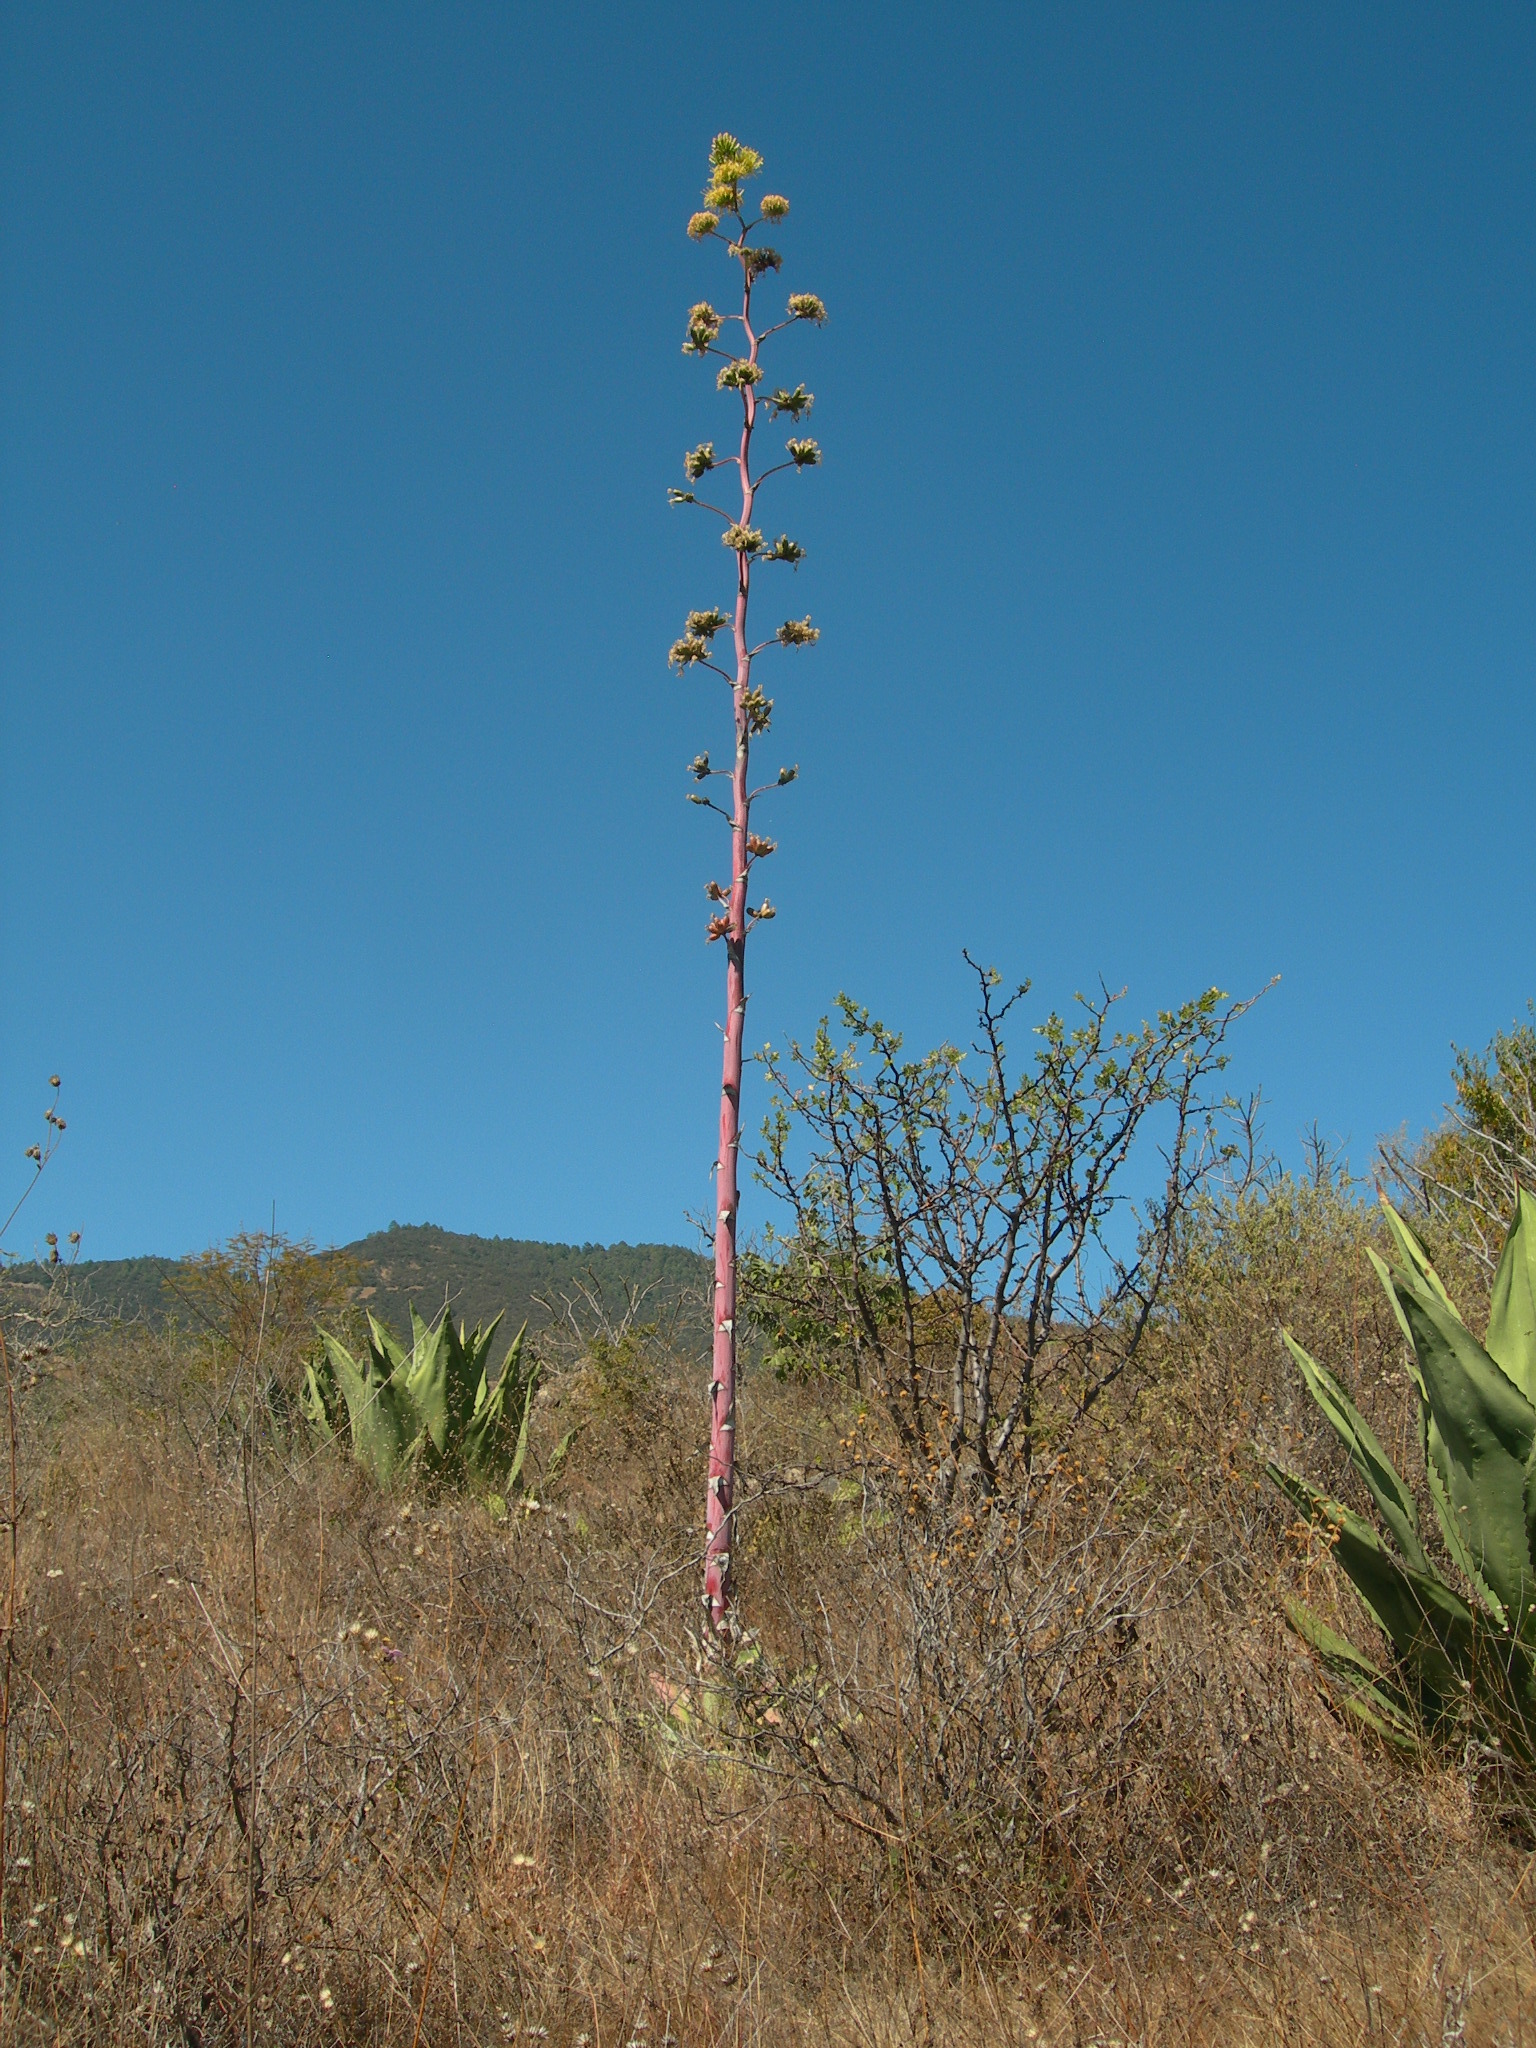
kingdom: Plantae
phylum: Tracheophyta
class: Liliopsida
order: Asparagales
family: Asparagaceae
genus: Agave
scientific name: Agave potatorum
